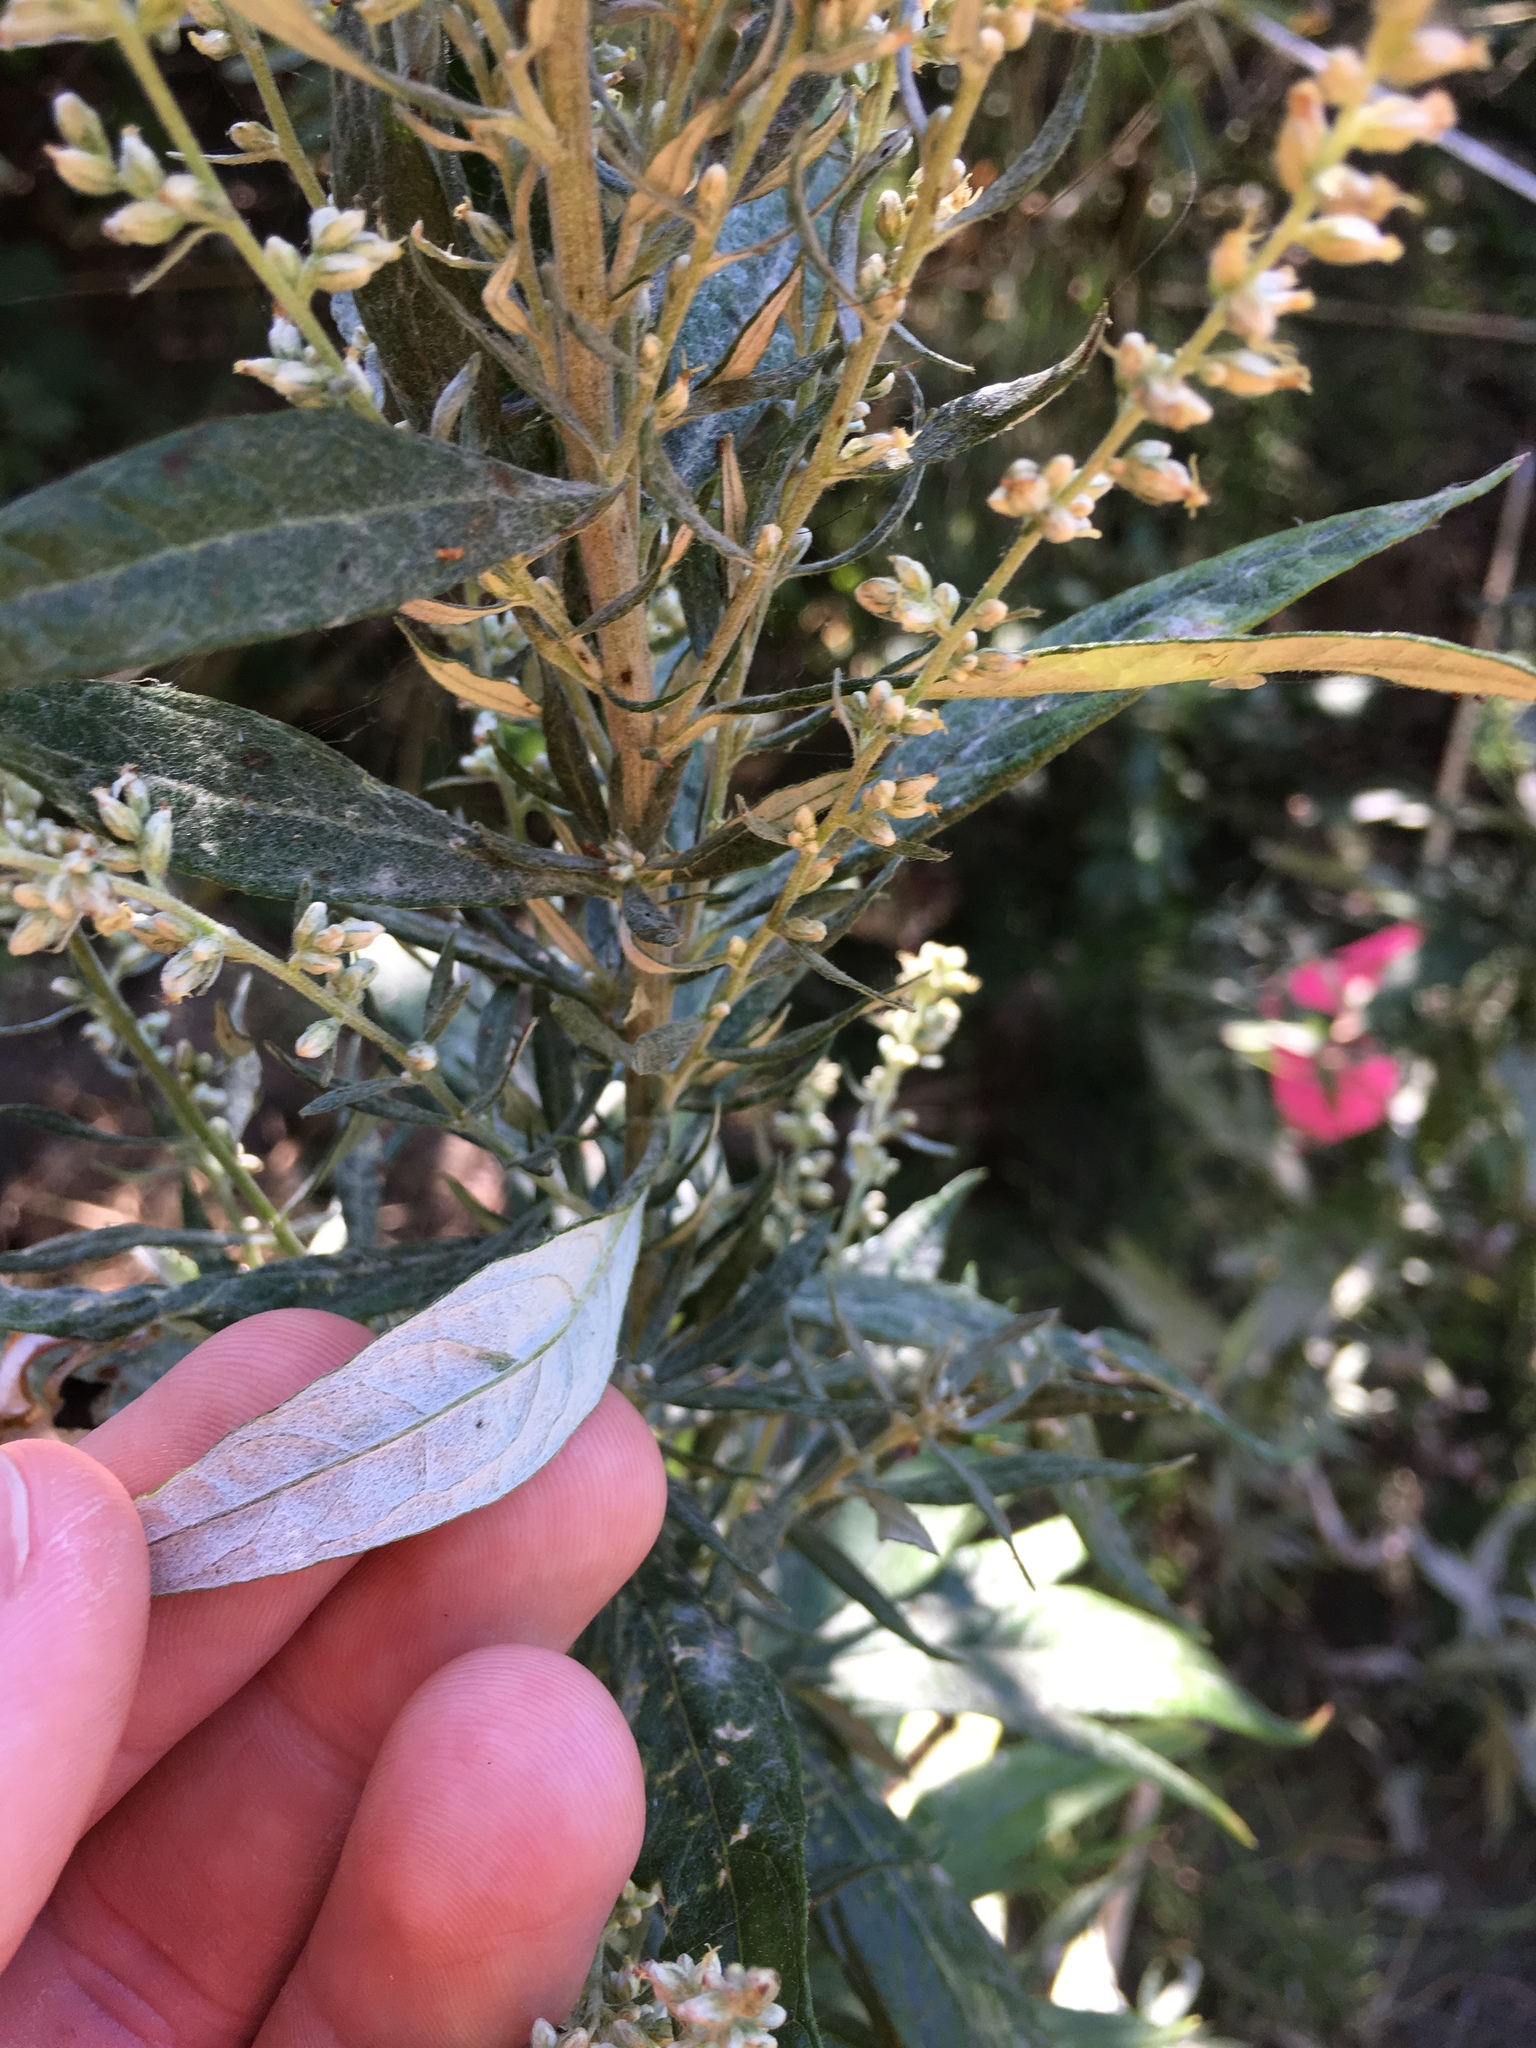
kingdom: Plantae
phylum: Tracheophyta
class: Magnoliopsida
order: Asterales
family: Asteraceae
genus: Artemisia
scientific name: Artemisia suksdorfii
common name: Suksdorf sagewort
